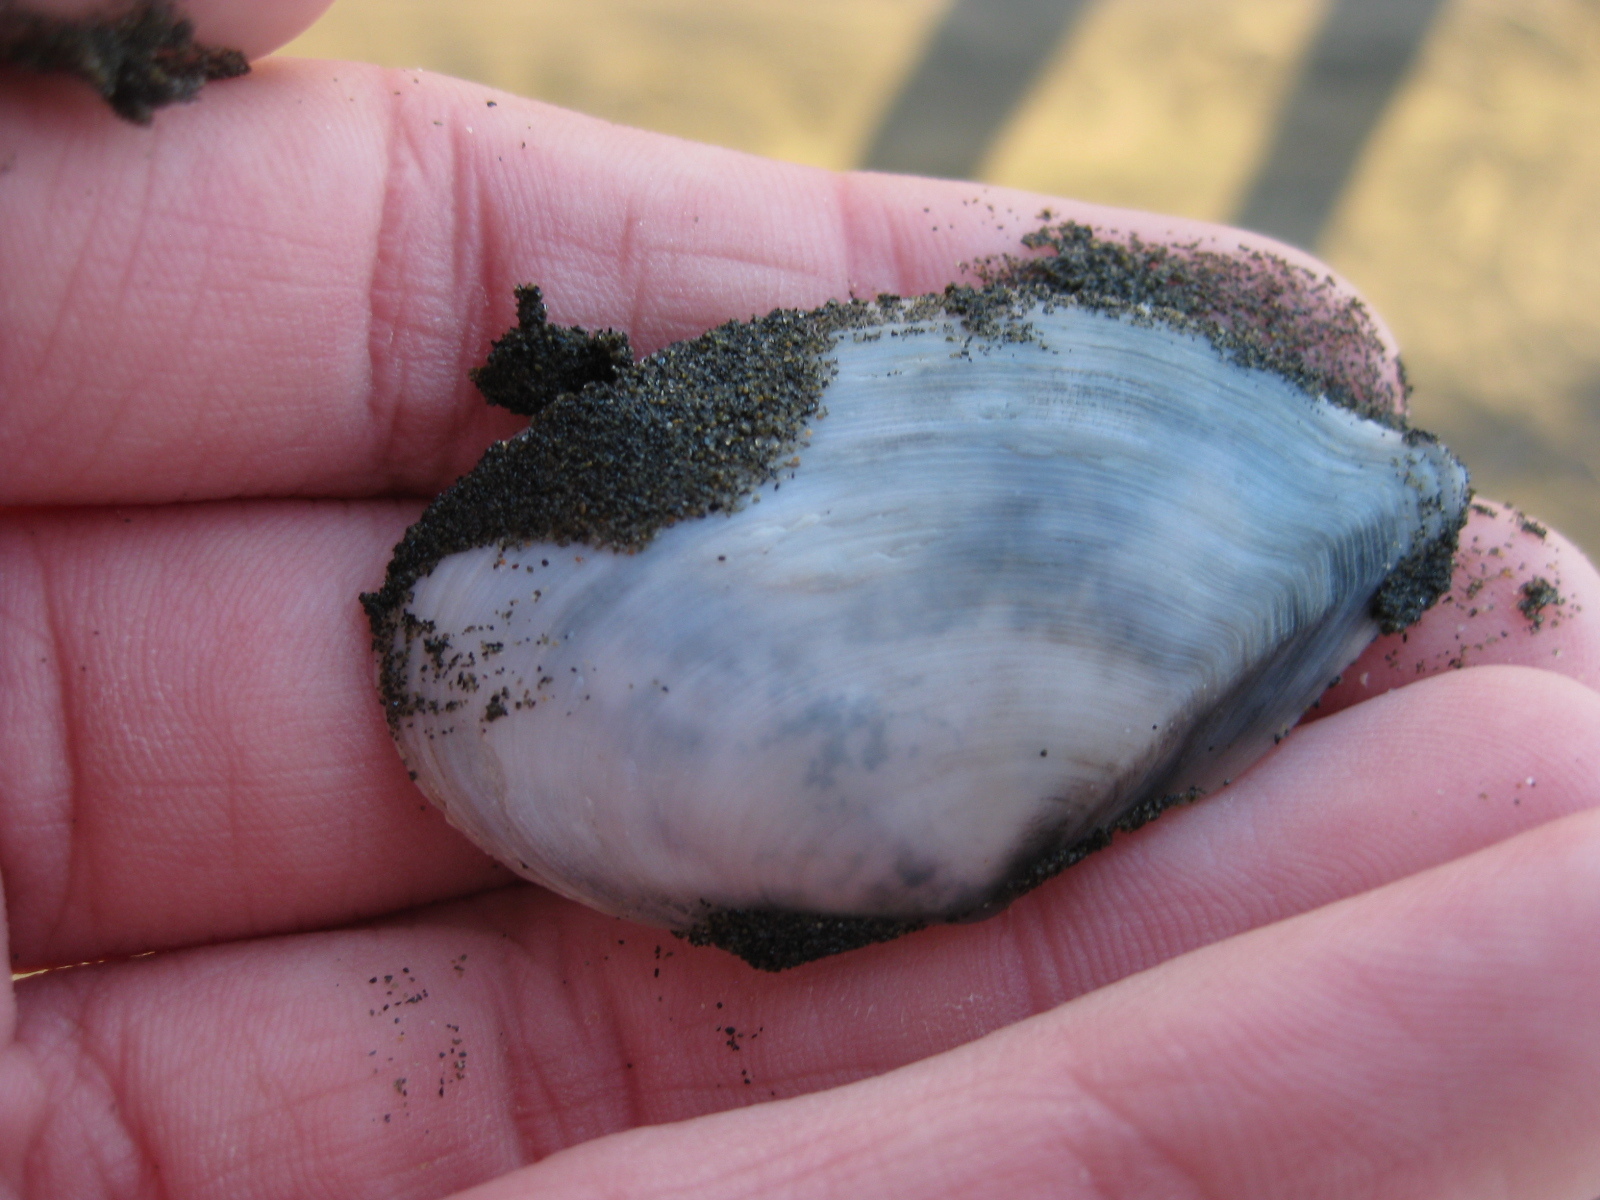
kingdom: Animalia
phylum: Mollusca
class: Bivalvia
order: Cardiida
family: Tellinidae
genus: Ardeamya
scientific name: Ardeamya spenceri
